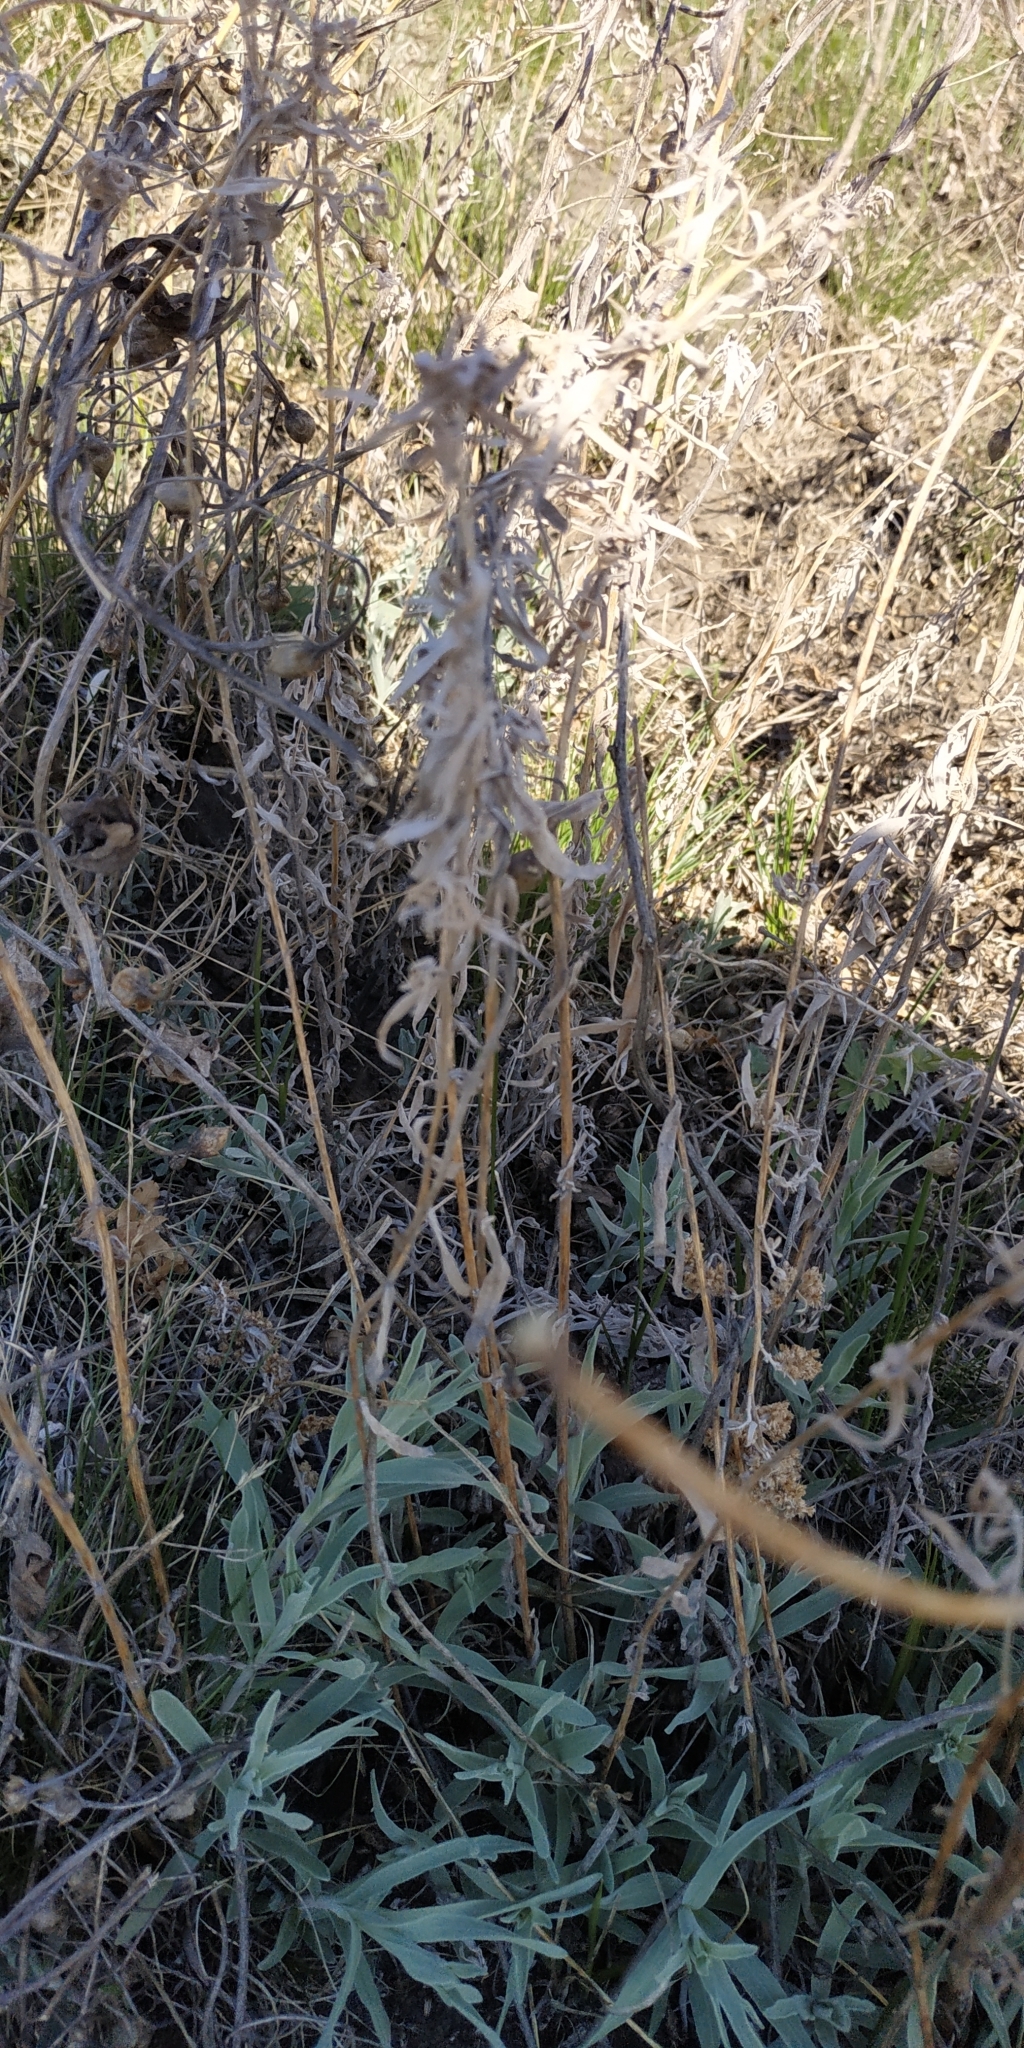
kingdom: Plantae
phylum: Tracheophyta
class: Magnoliopsida
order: Asterales
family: Asteraceae
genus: Artemisia
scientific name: Artemisia glauca
